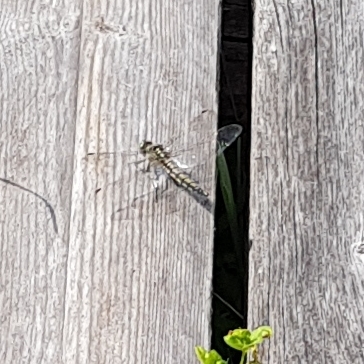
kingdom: Animalia
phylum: Arthropoda
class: Insecta
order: Odonata
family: Libellulidae
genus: Orthetrum
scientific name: Orthetrum cancellatum
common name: Black-tailed skimmer
